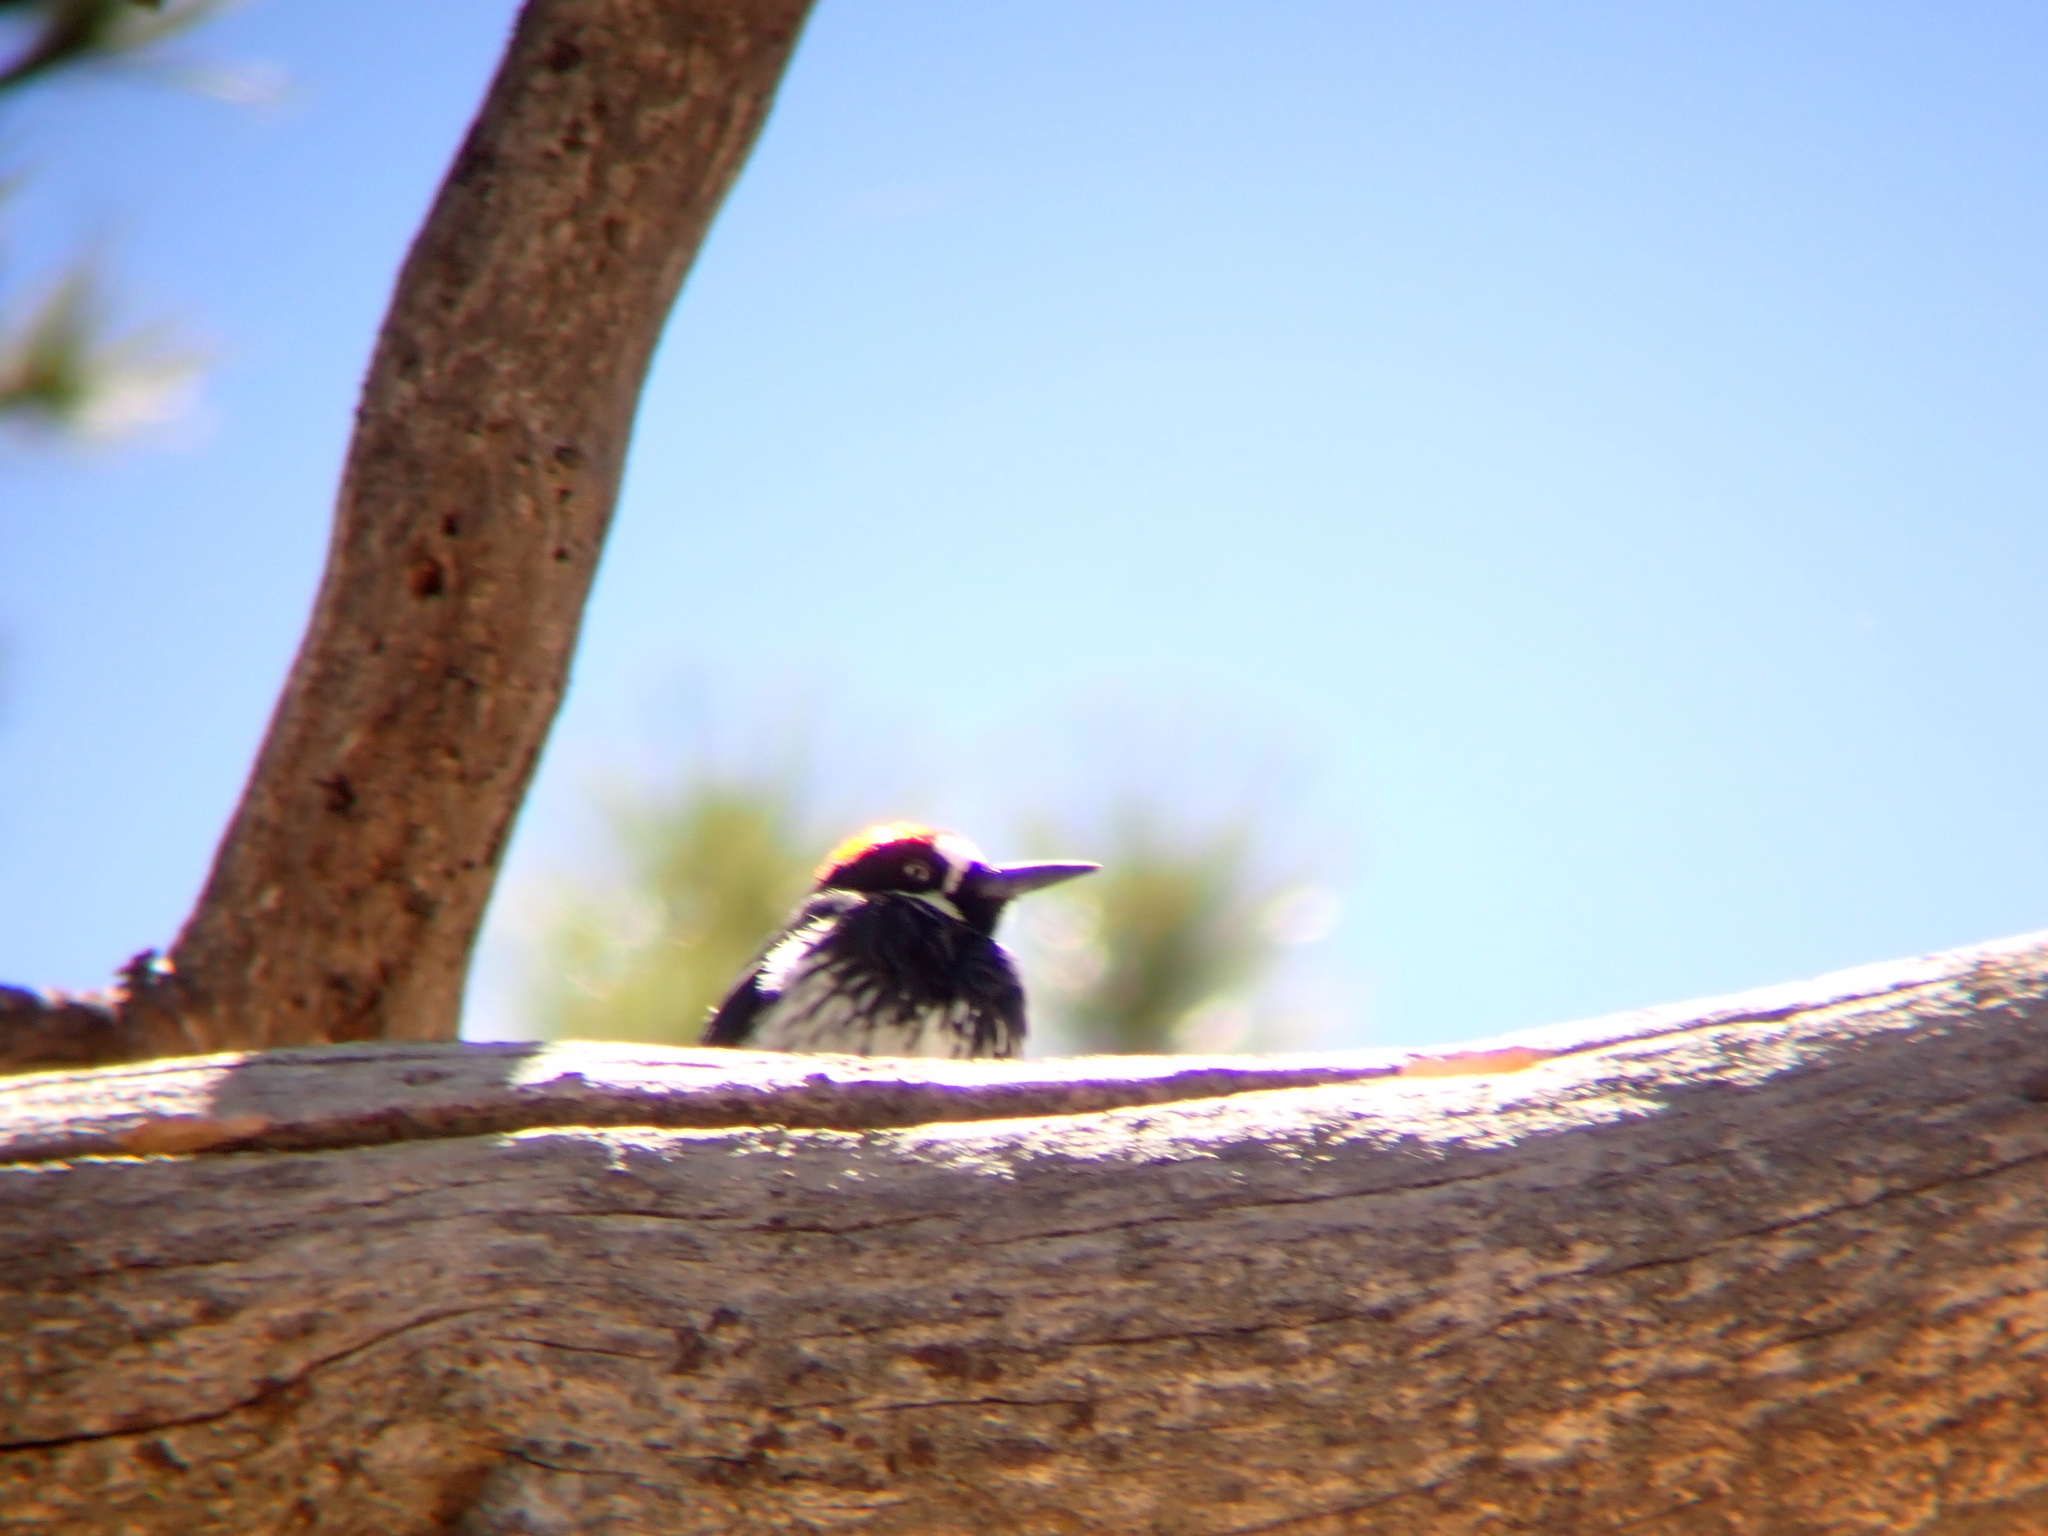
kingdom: Animalia
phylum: Chordata
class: Aves
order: Piciformes
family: Picidae
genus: Melanerpes
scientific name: Melanerpes formicivorus
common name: Acorn woodpecker
